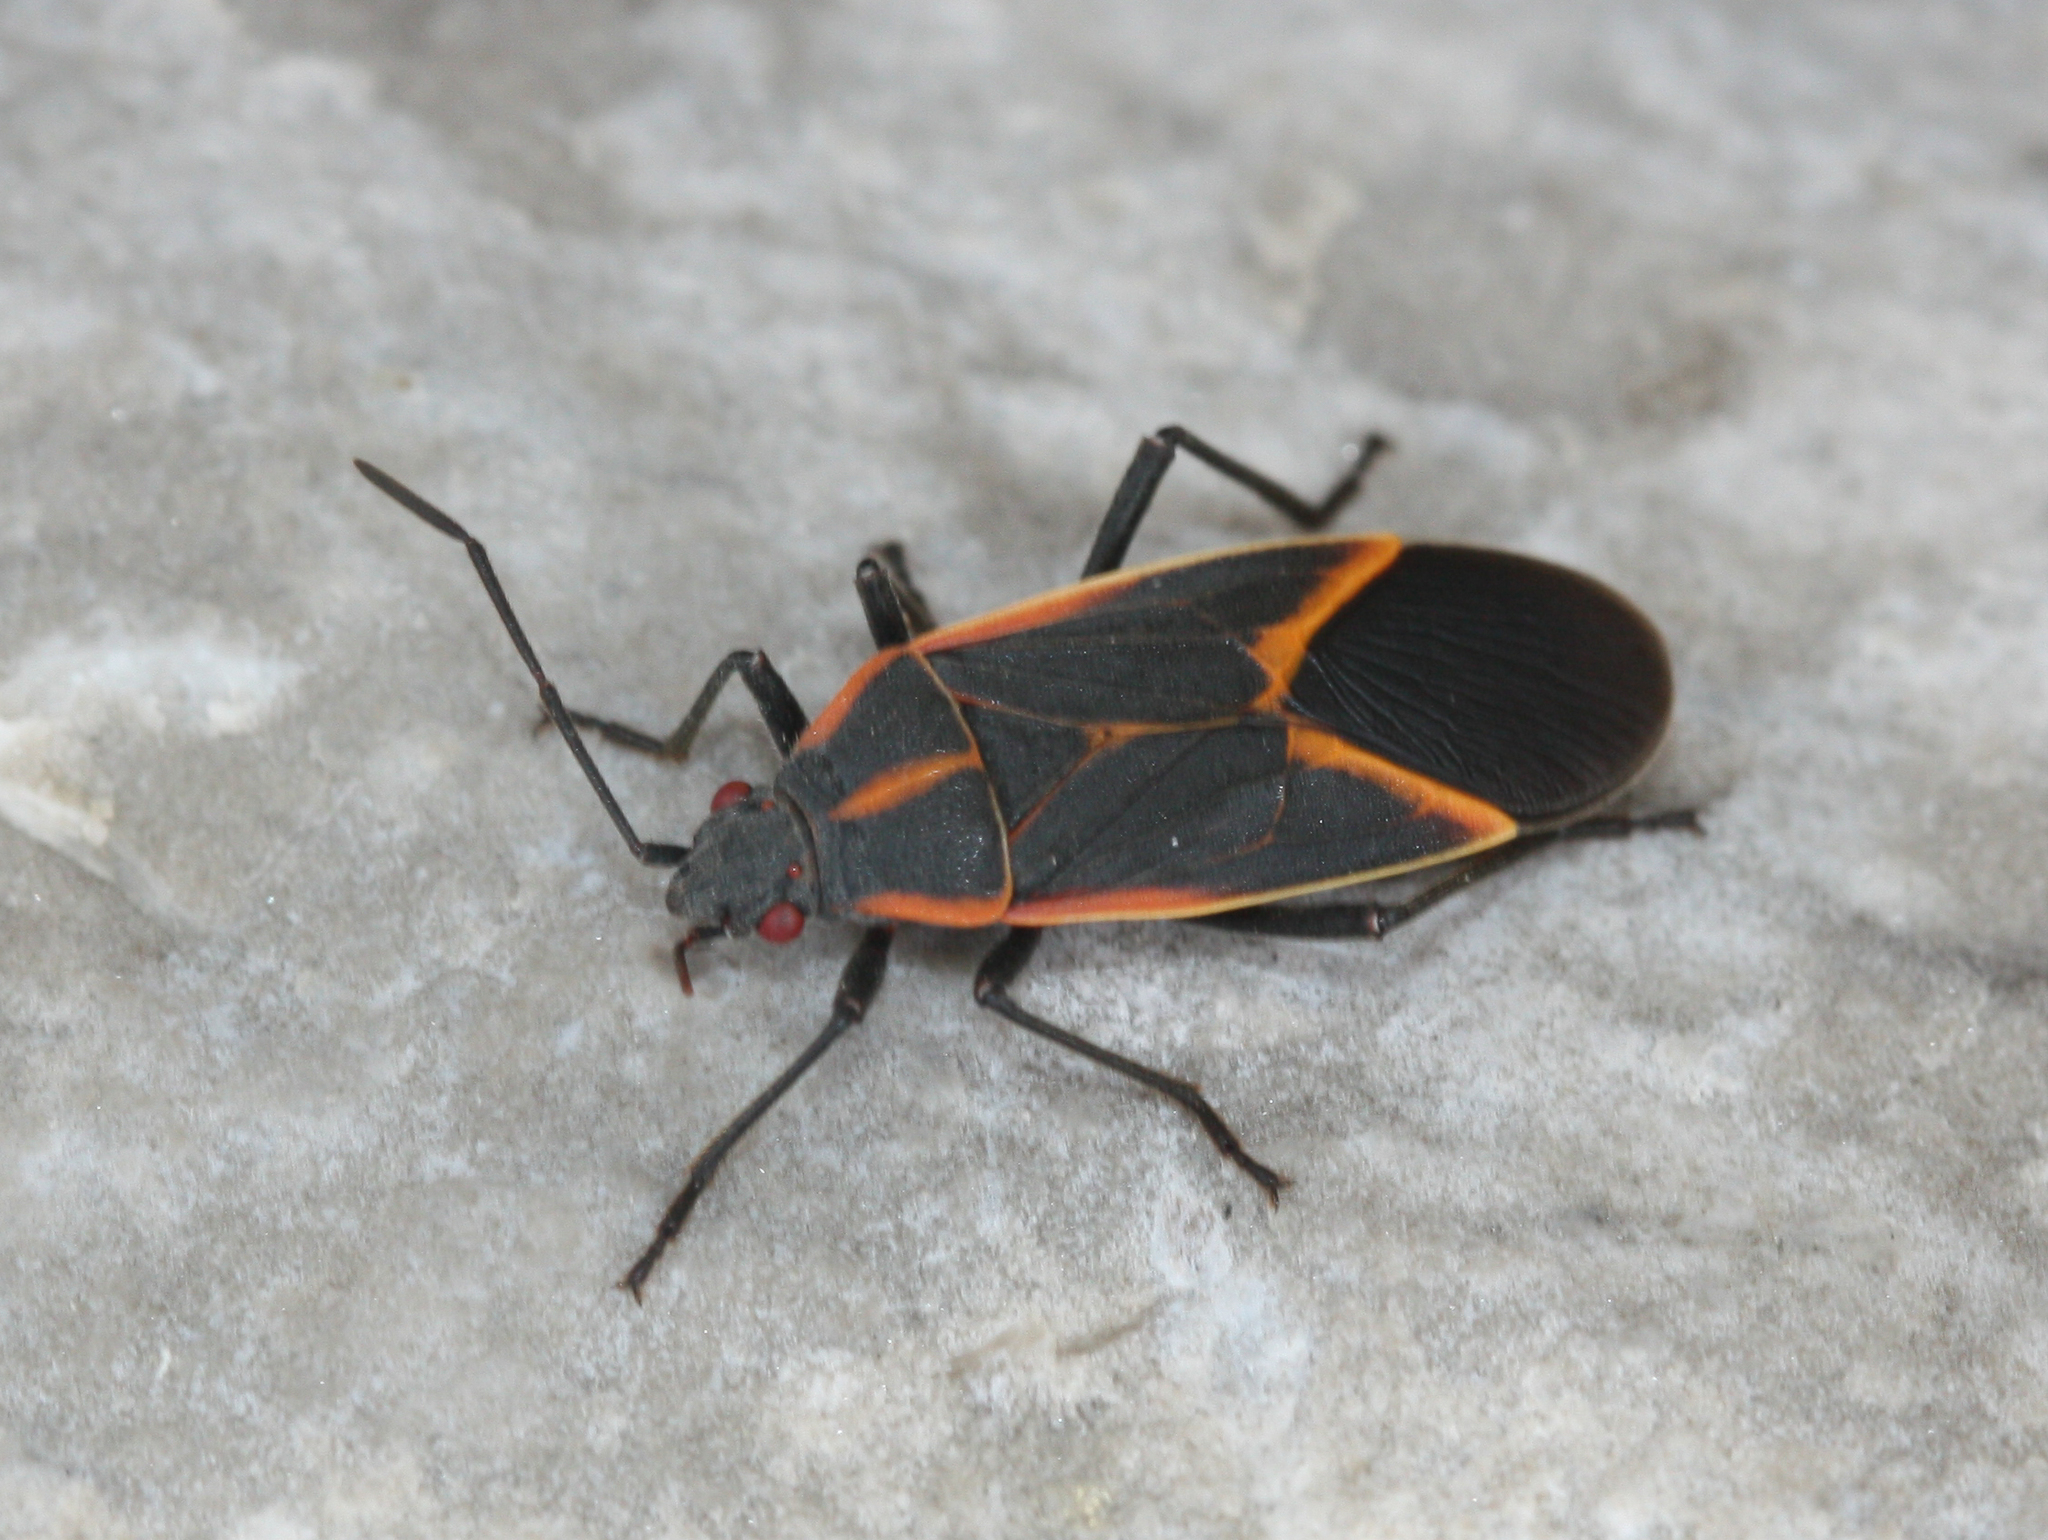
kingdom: Animalia
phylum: Arthropoda
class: Insecta
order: Hemiptera
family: Rhopalidae
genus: Boisea
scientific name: Boisea trivittata
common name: Boxelder bug
